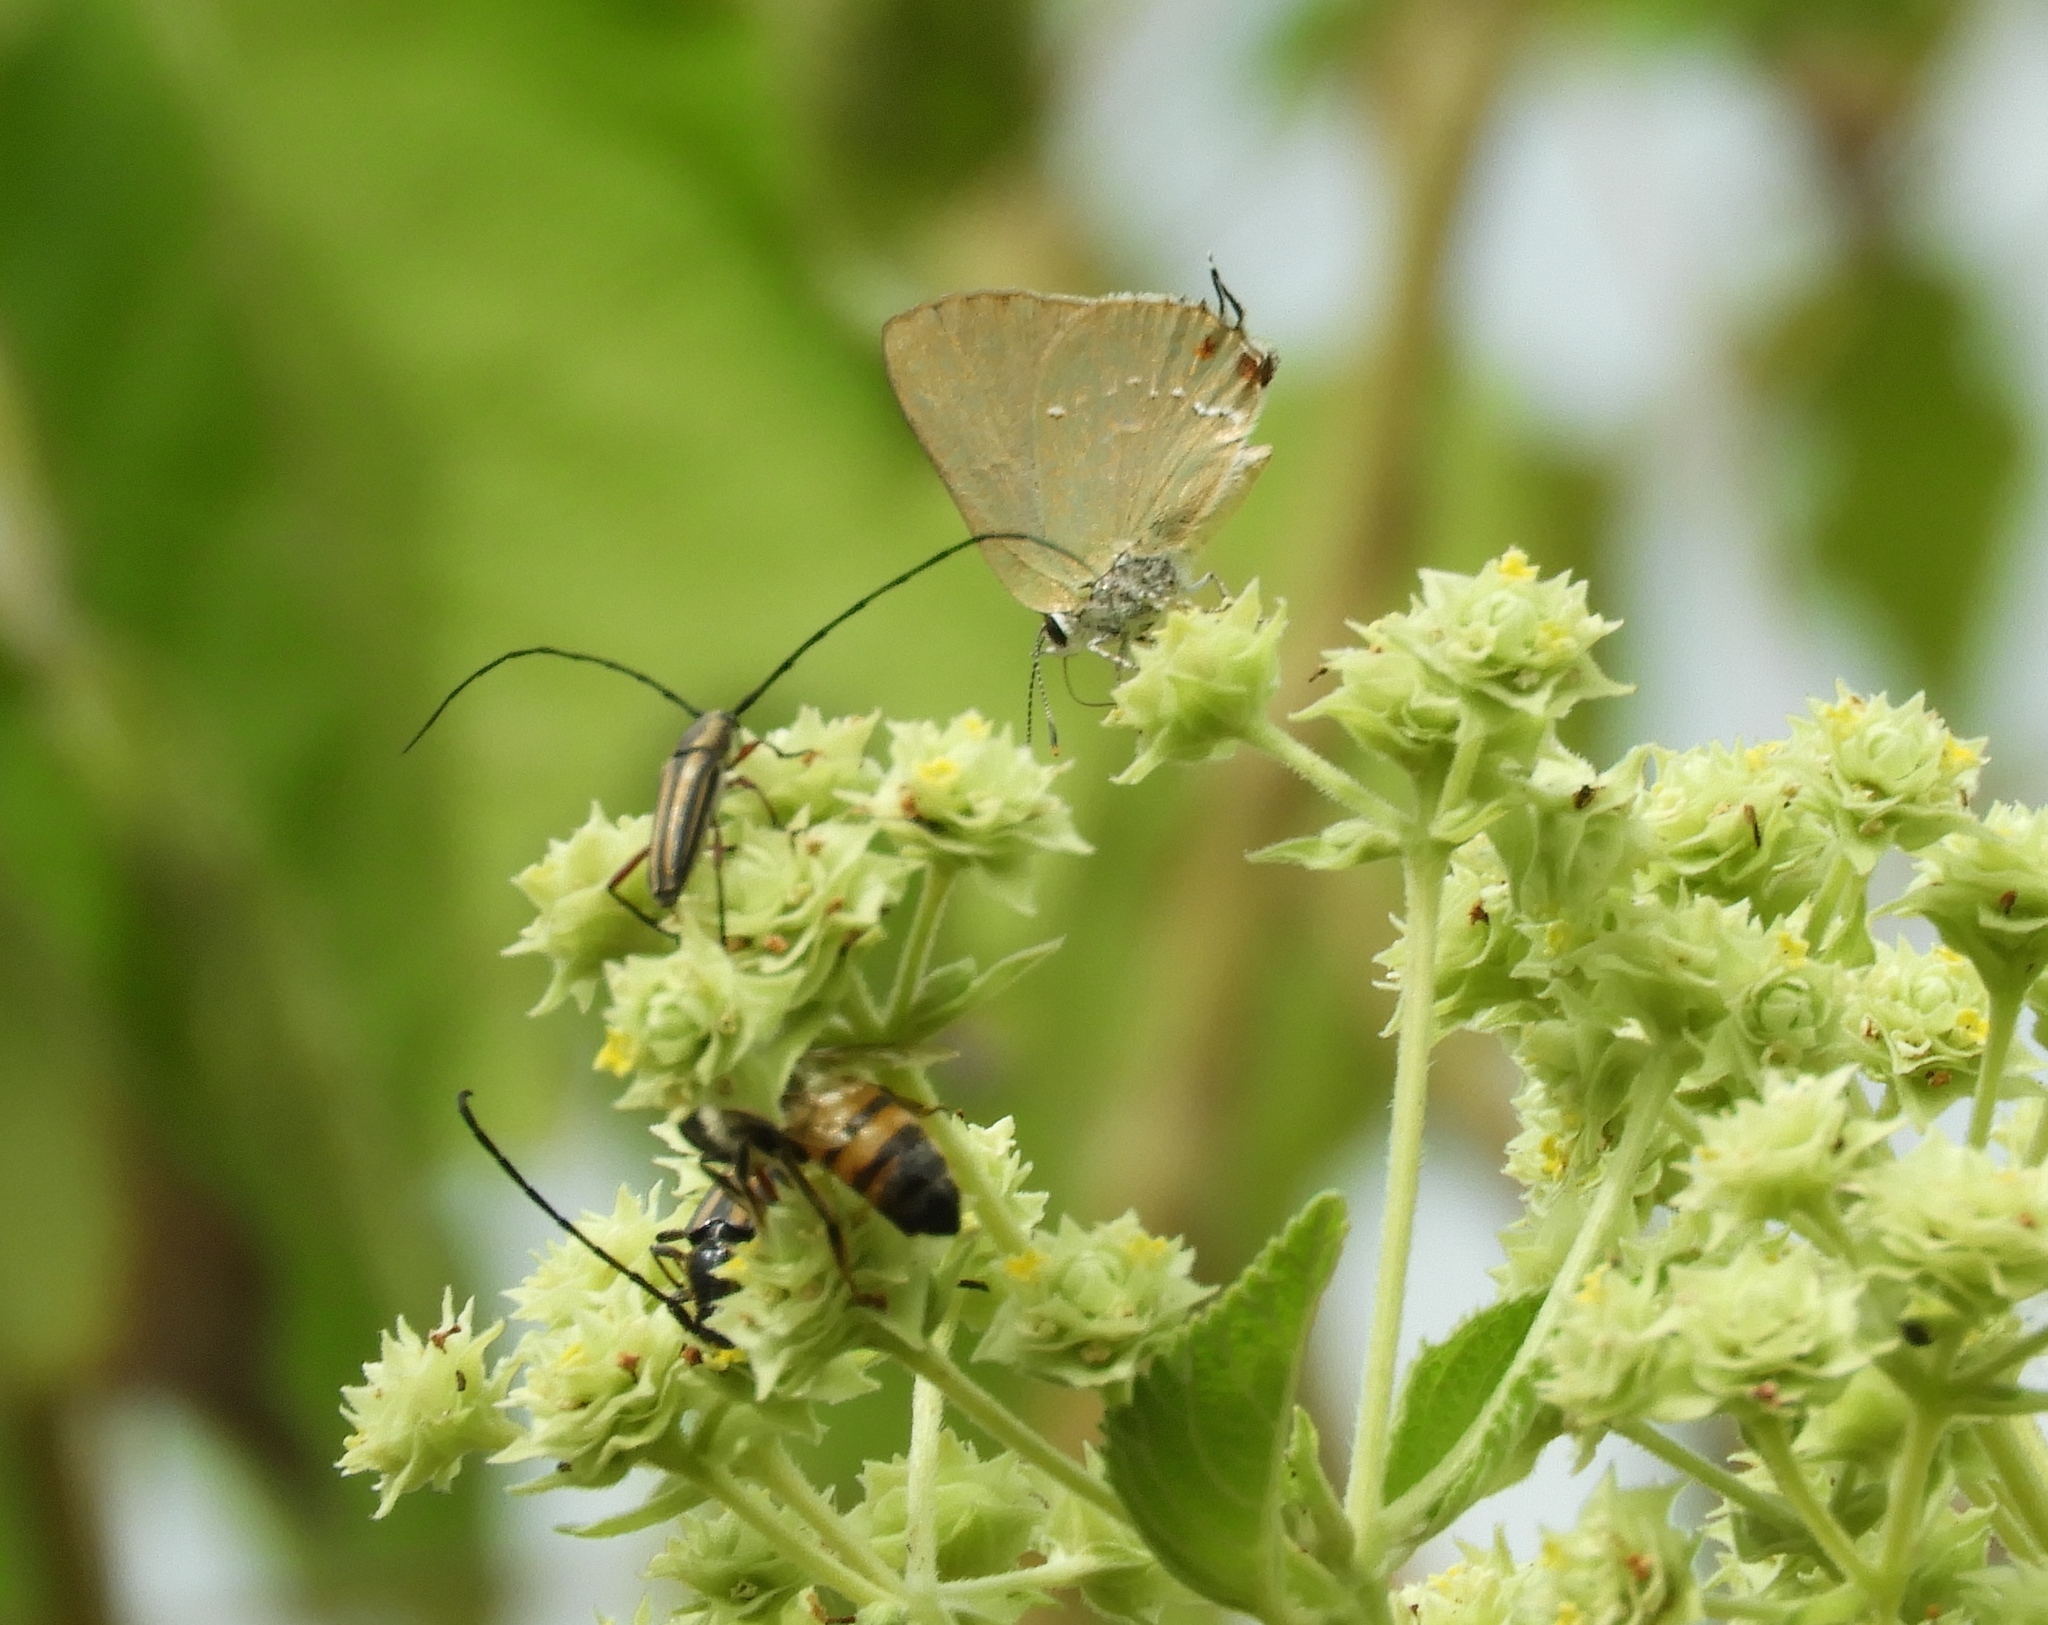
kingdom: Animalia
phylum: Arthropoda
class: Insecta
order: Lepidoptera
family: Lycaenidae
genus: Thecla
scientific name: Thecla herodotus
